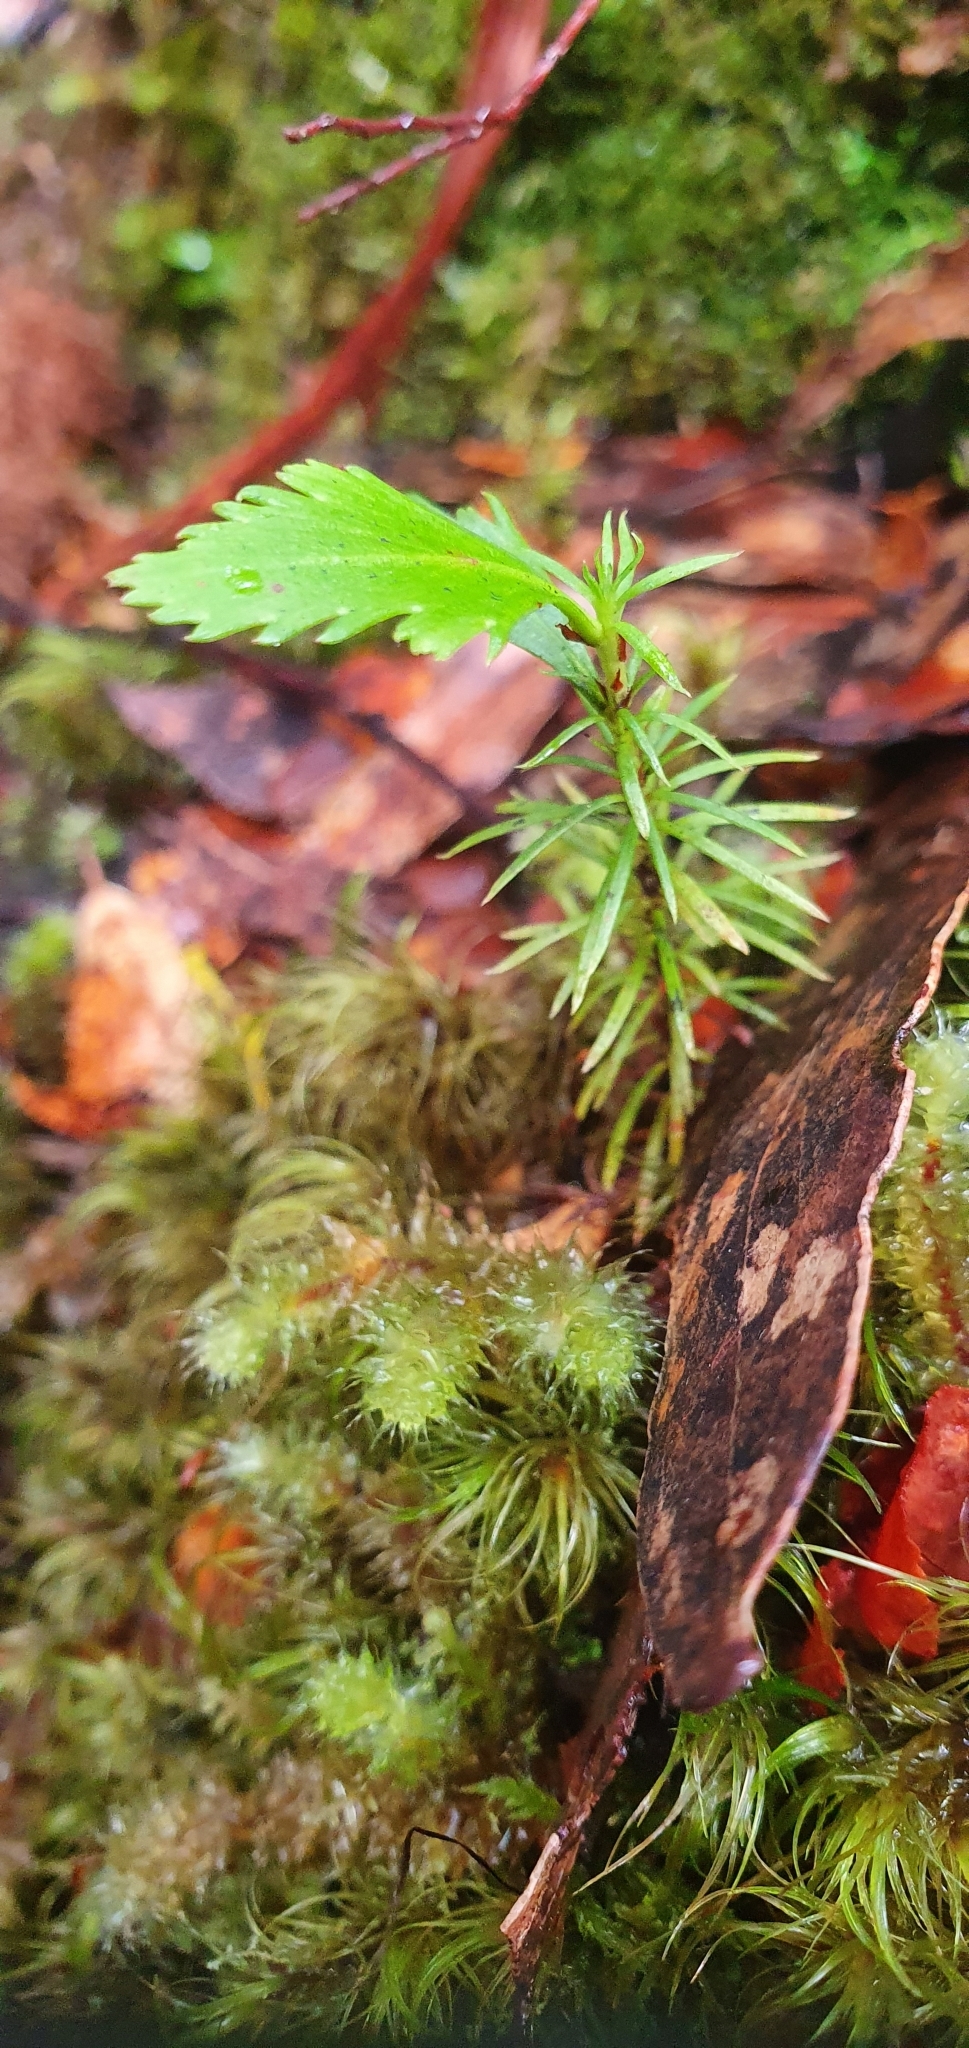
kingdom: Plantae
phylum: Tracheophyta
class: Pinopsida
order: Pinales
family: Phyllocladaceae
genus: Phyllocladus
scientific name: Phyllocladus aspleniifolius
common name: Celery-top pine
